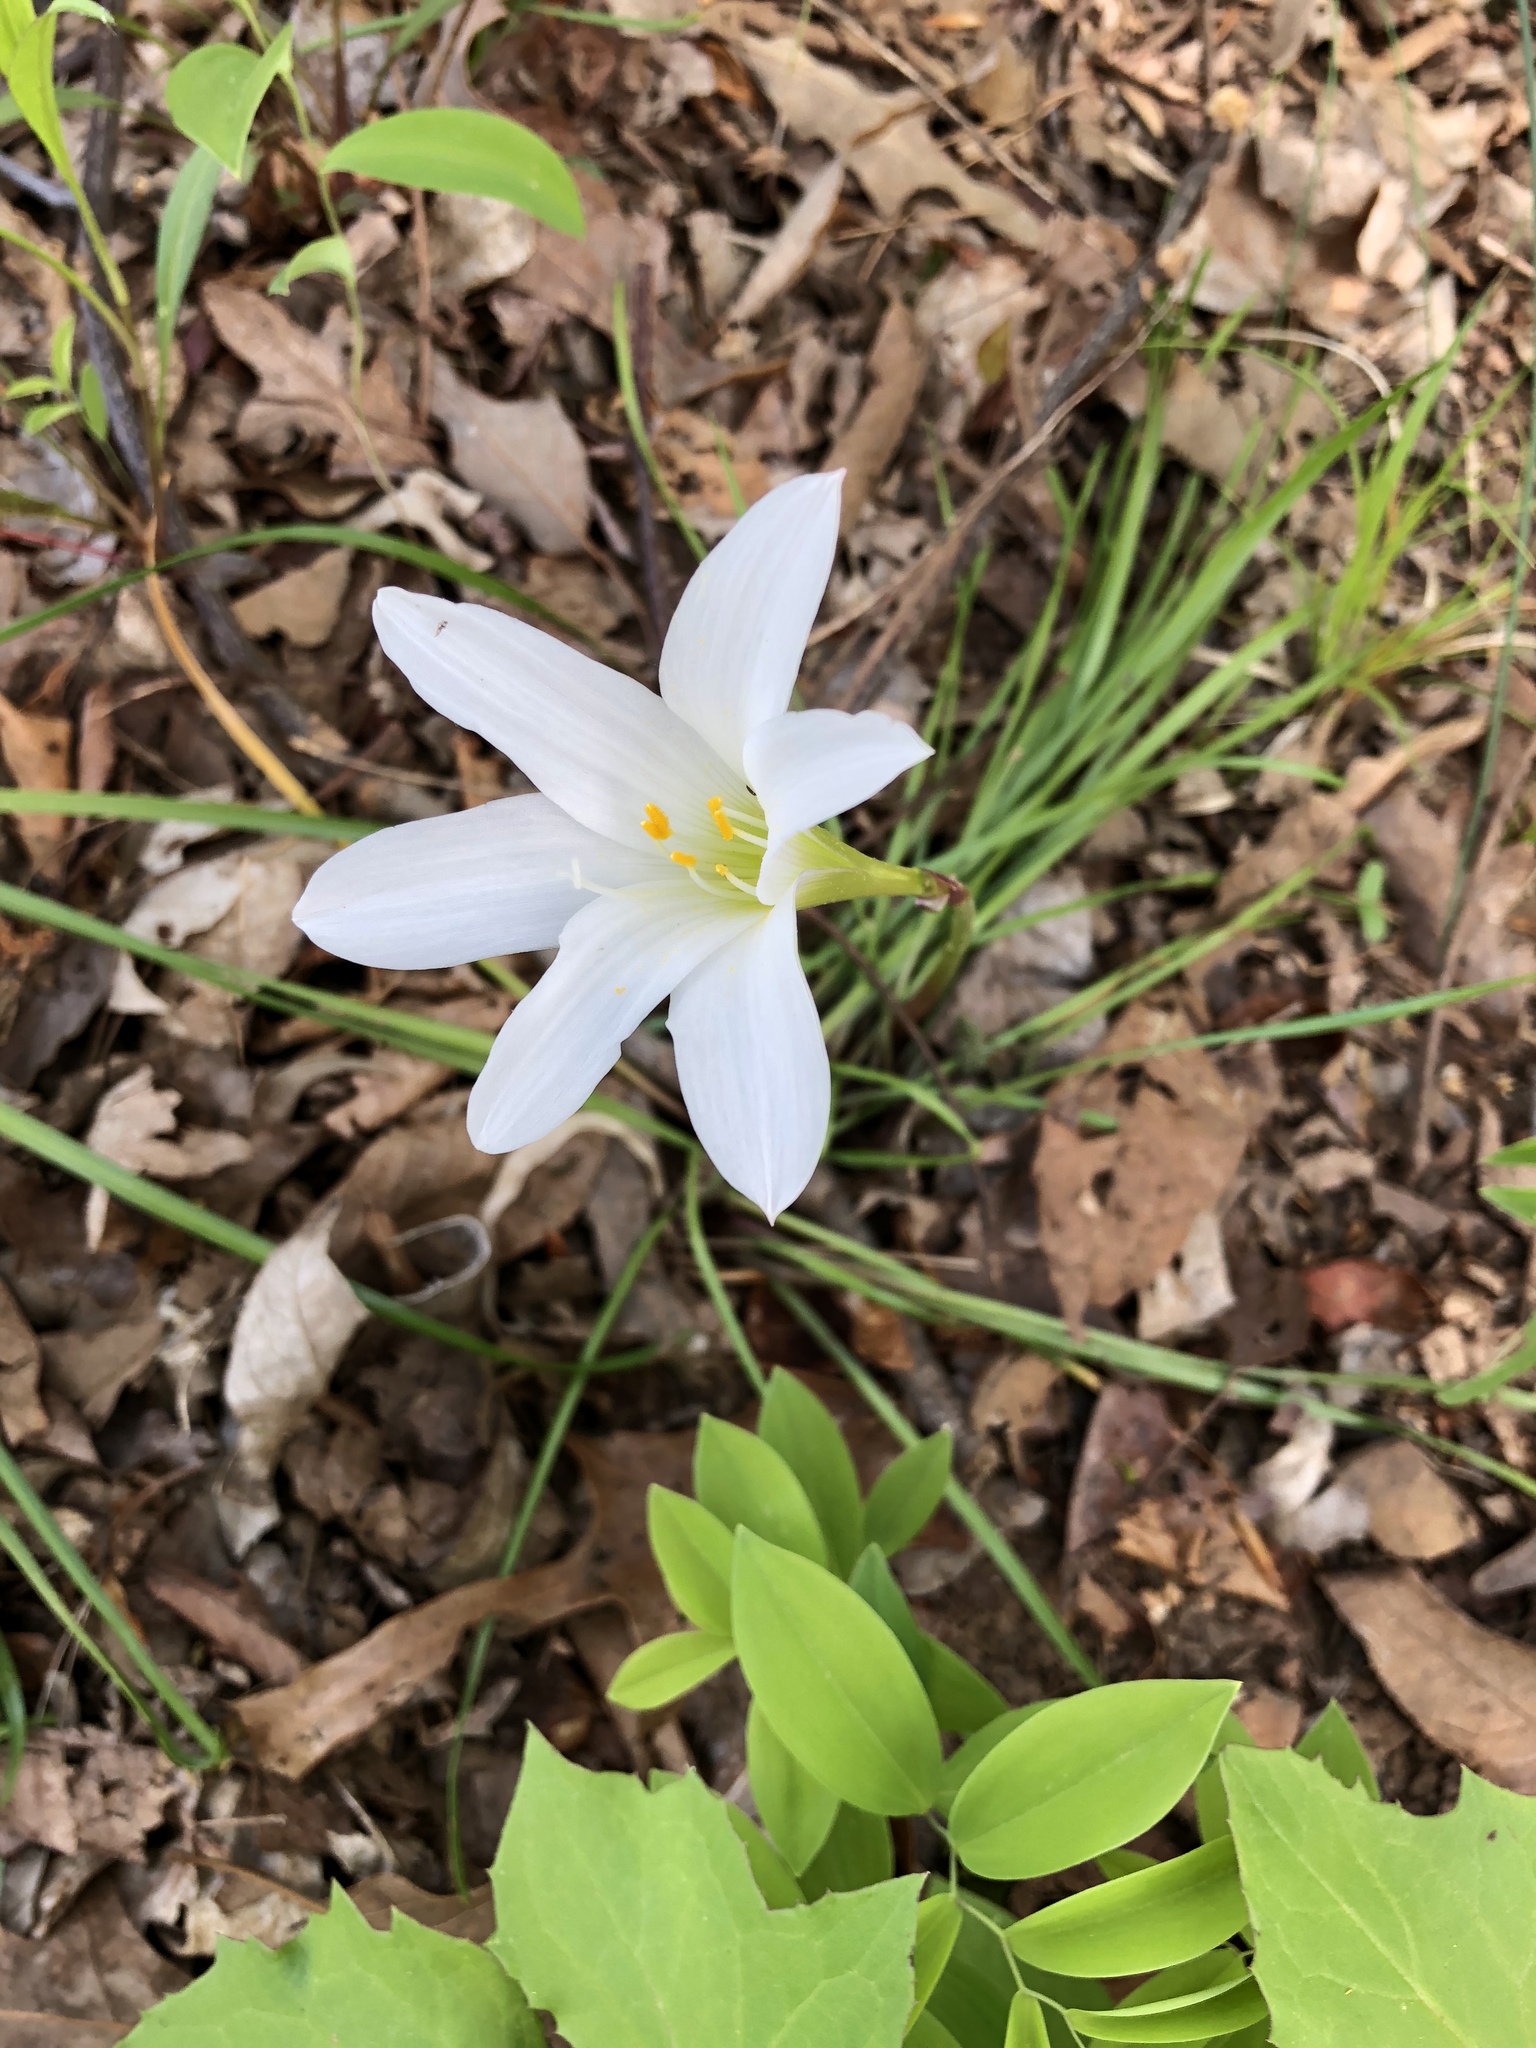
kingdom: Plantae
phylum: Tracheophyta
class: Liliopsida
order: Asparagales
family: Amaryllidaceae
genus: Zephyranthes
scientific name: Zephyranthes atamasco
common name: Atamasco lily
